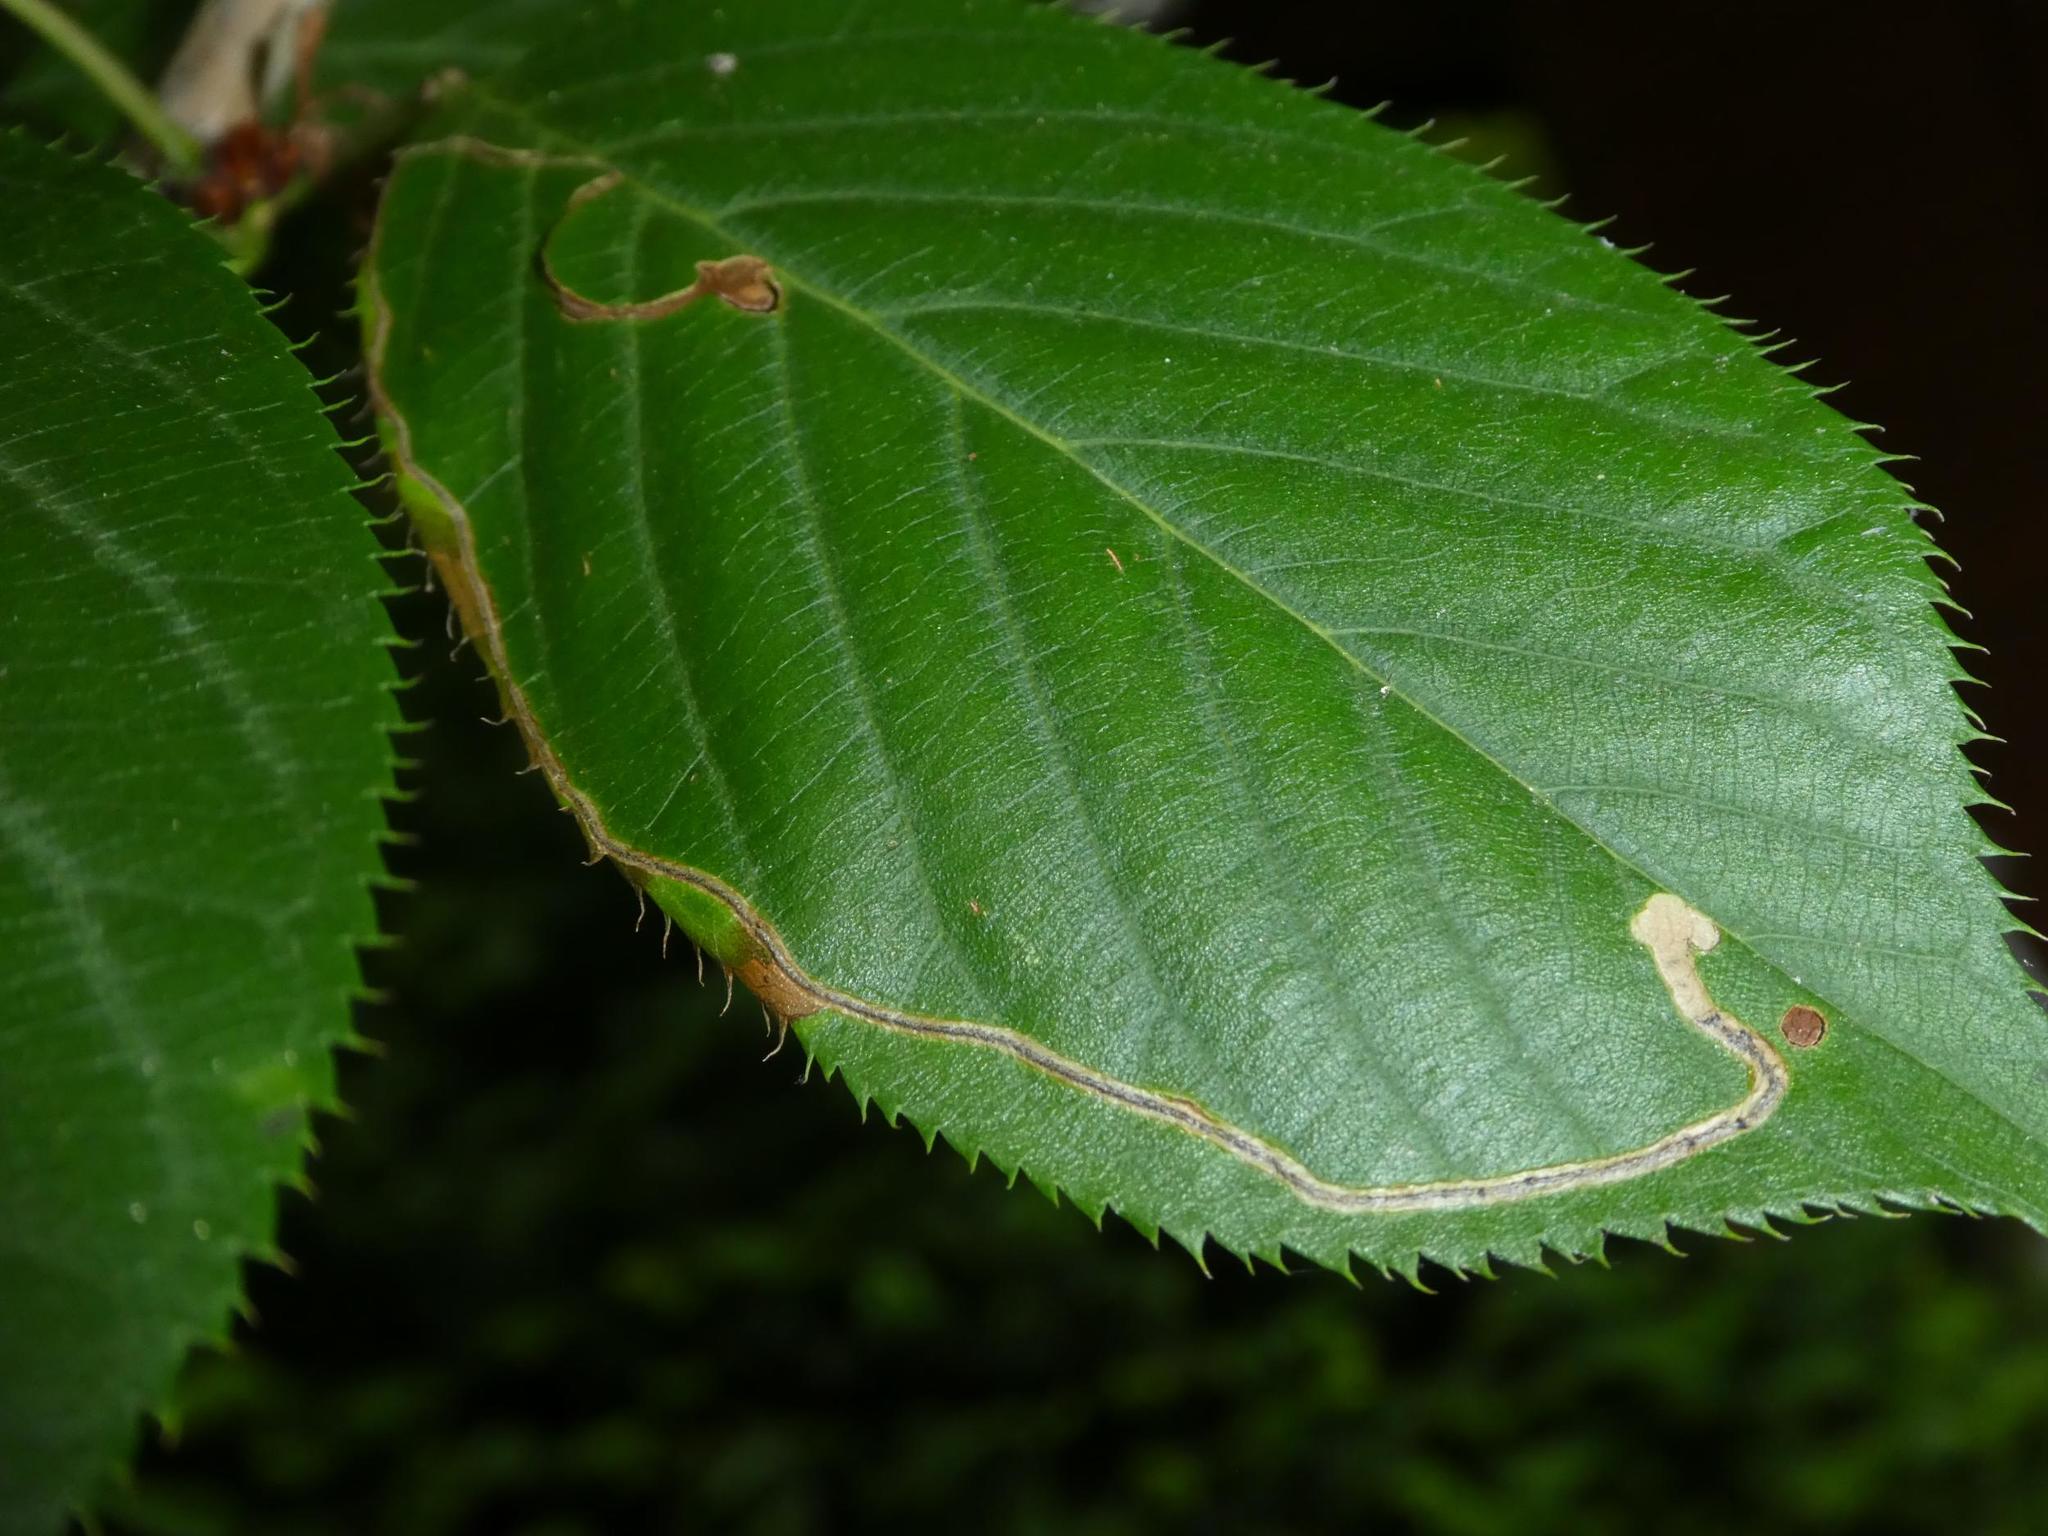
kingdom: Animalia
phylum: Arthropoda
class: Insecta
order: Lepidoptera
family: Lyonetiidae
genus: Lyonetia
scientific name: Lyonetia clerkella
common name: Apple leaf miner
